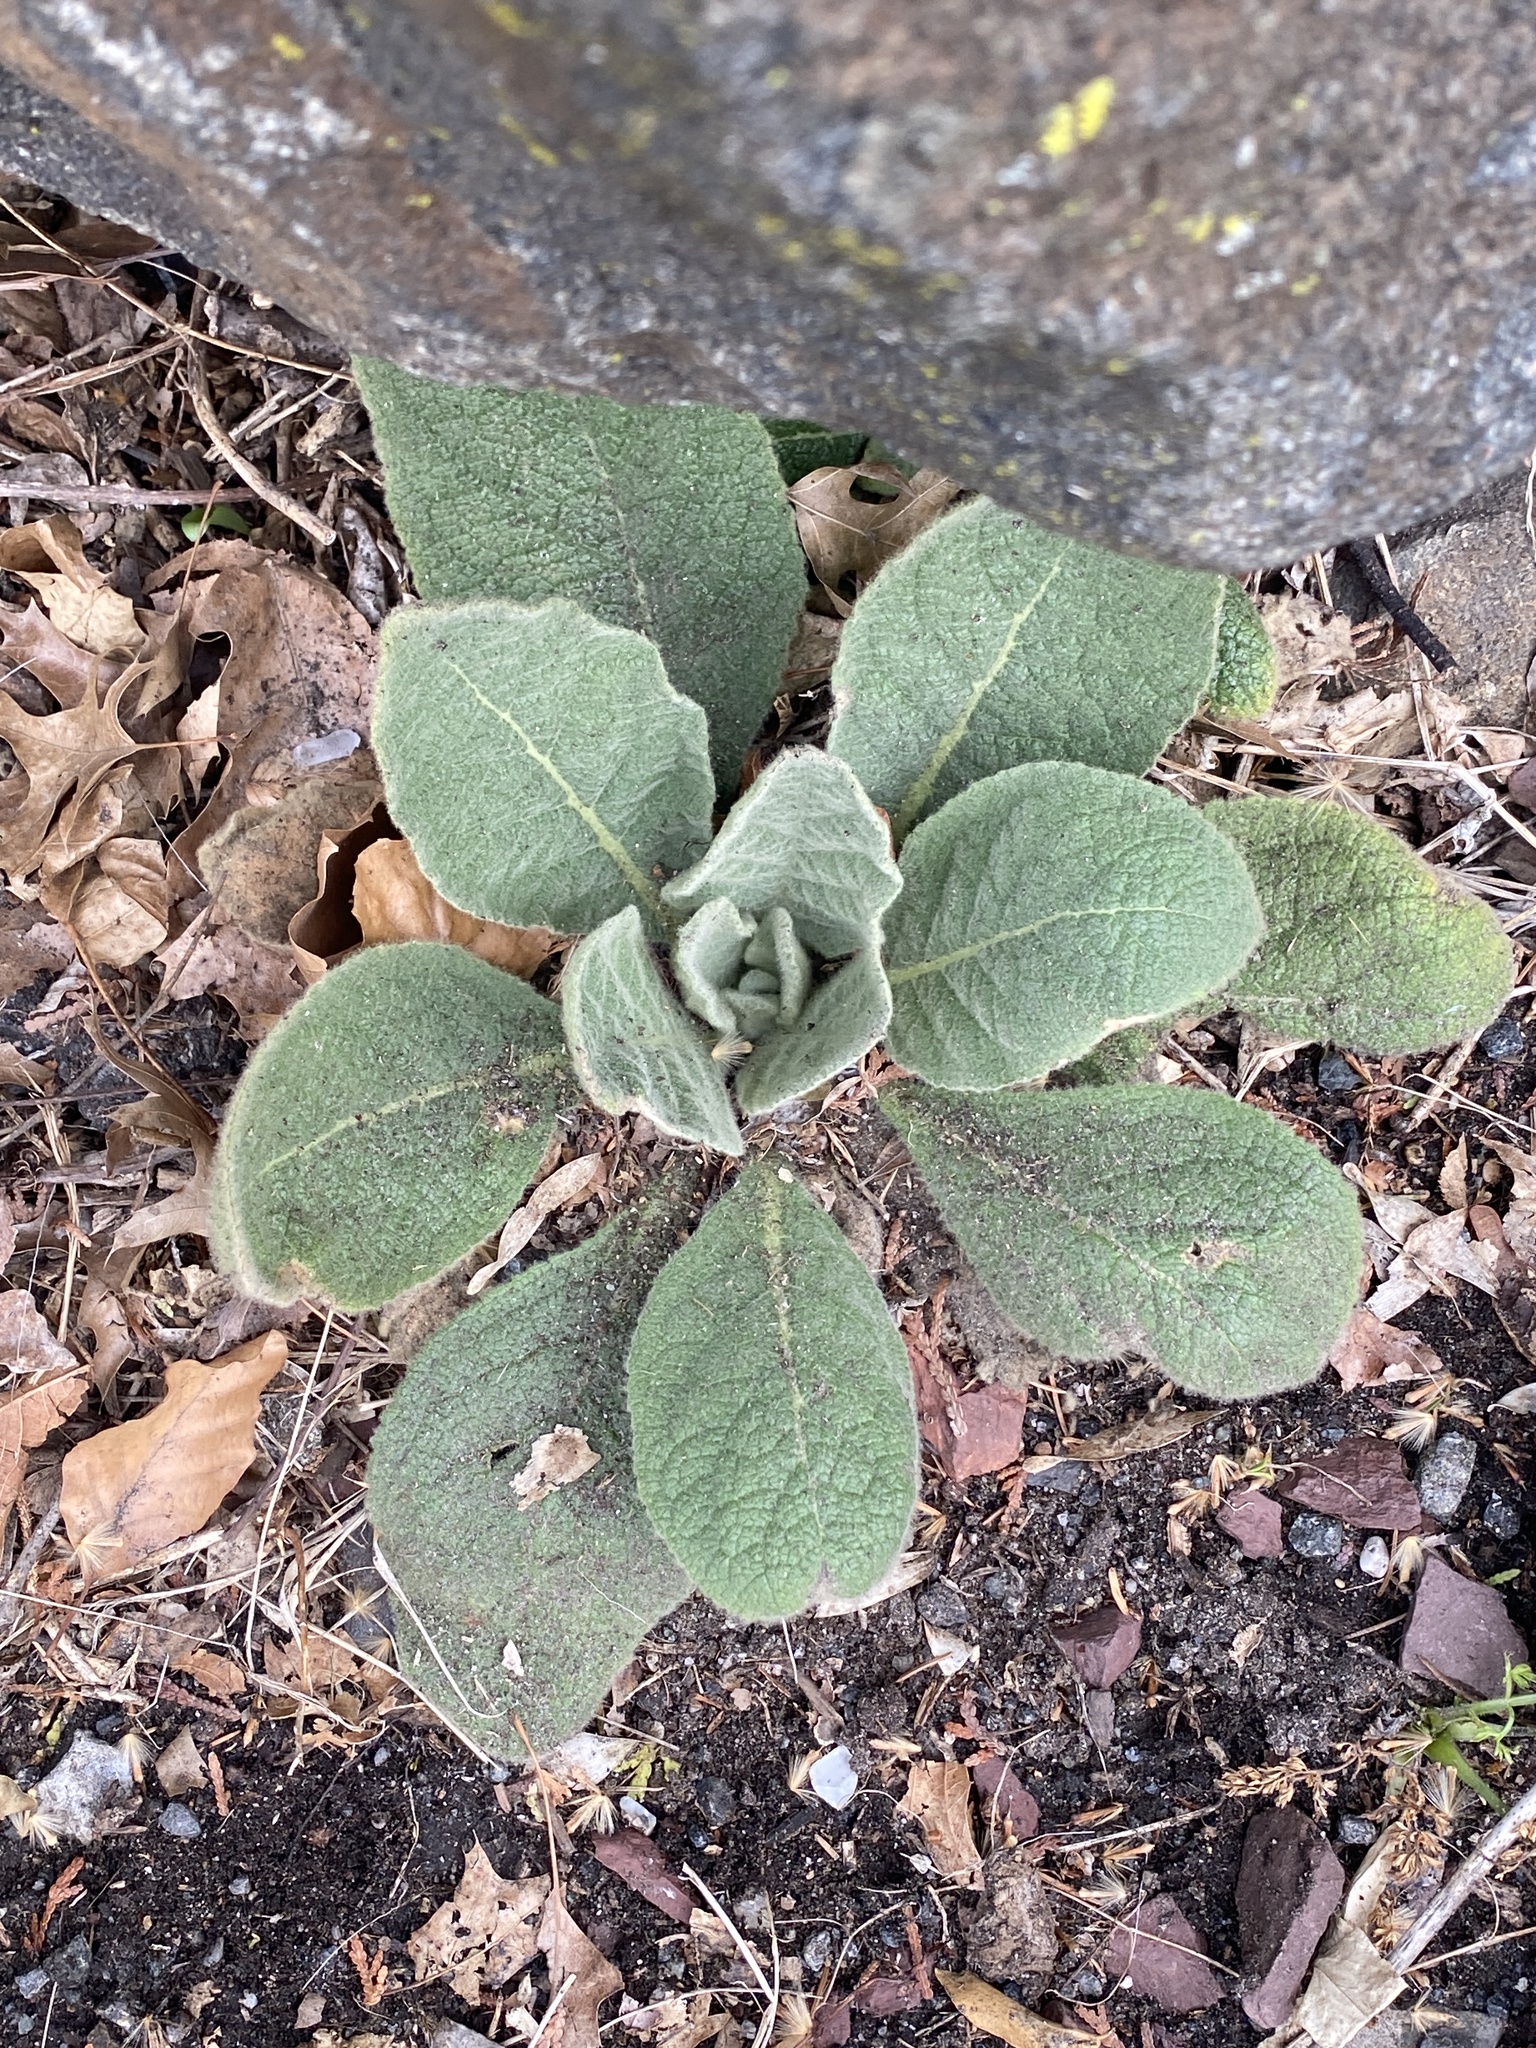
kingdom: Plantae
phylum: Tracheophyta
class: Magnoliopsida
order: Lamiales
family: Scrophulariaceae
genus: Verbascum
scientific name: Verbascum thapsus
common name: Common mullein
